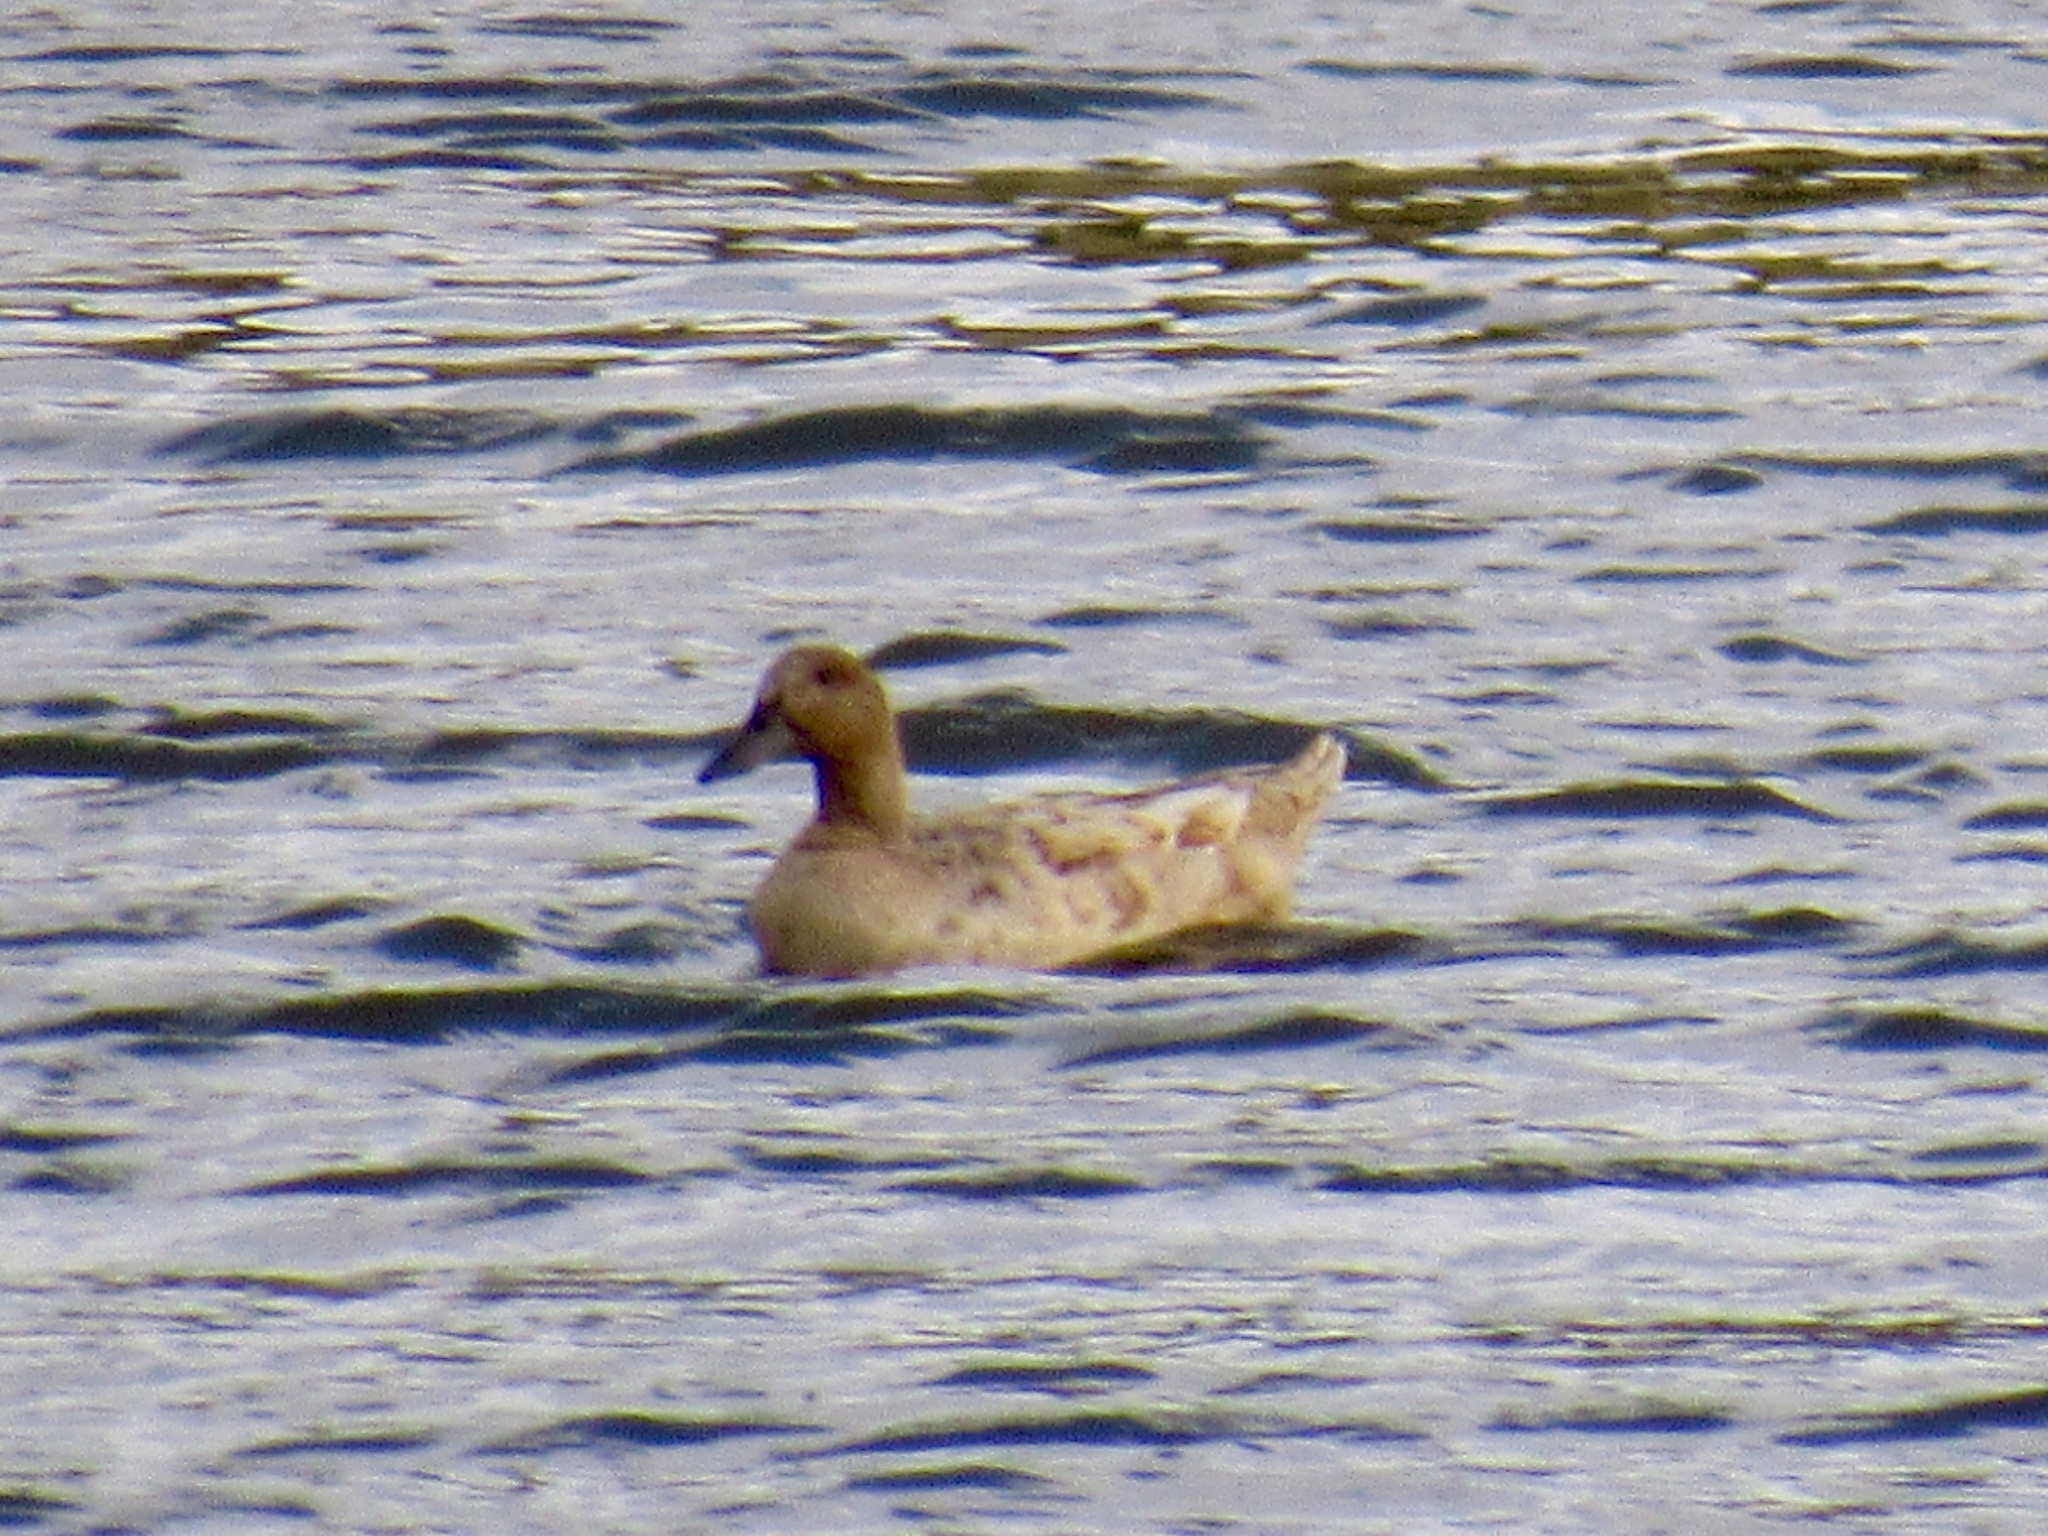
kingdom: Animalia
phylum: Chordata
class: Aves
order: Anseriformes
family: Anatidae
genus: Anas
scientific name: Anas platyrhynchos
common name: Mallard
